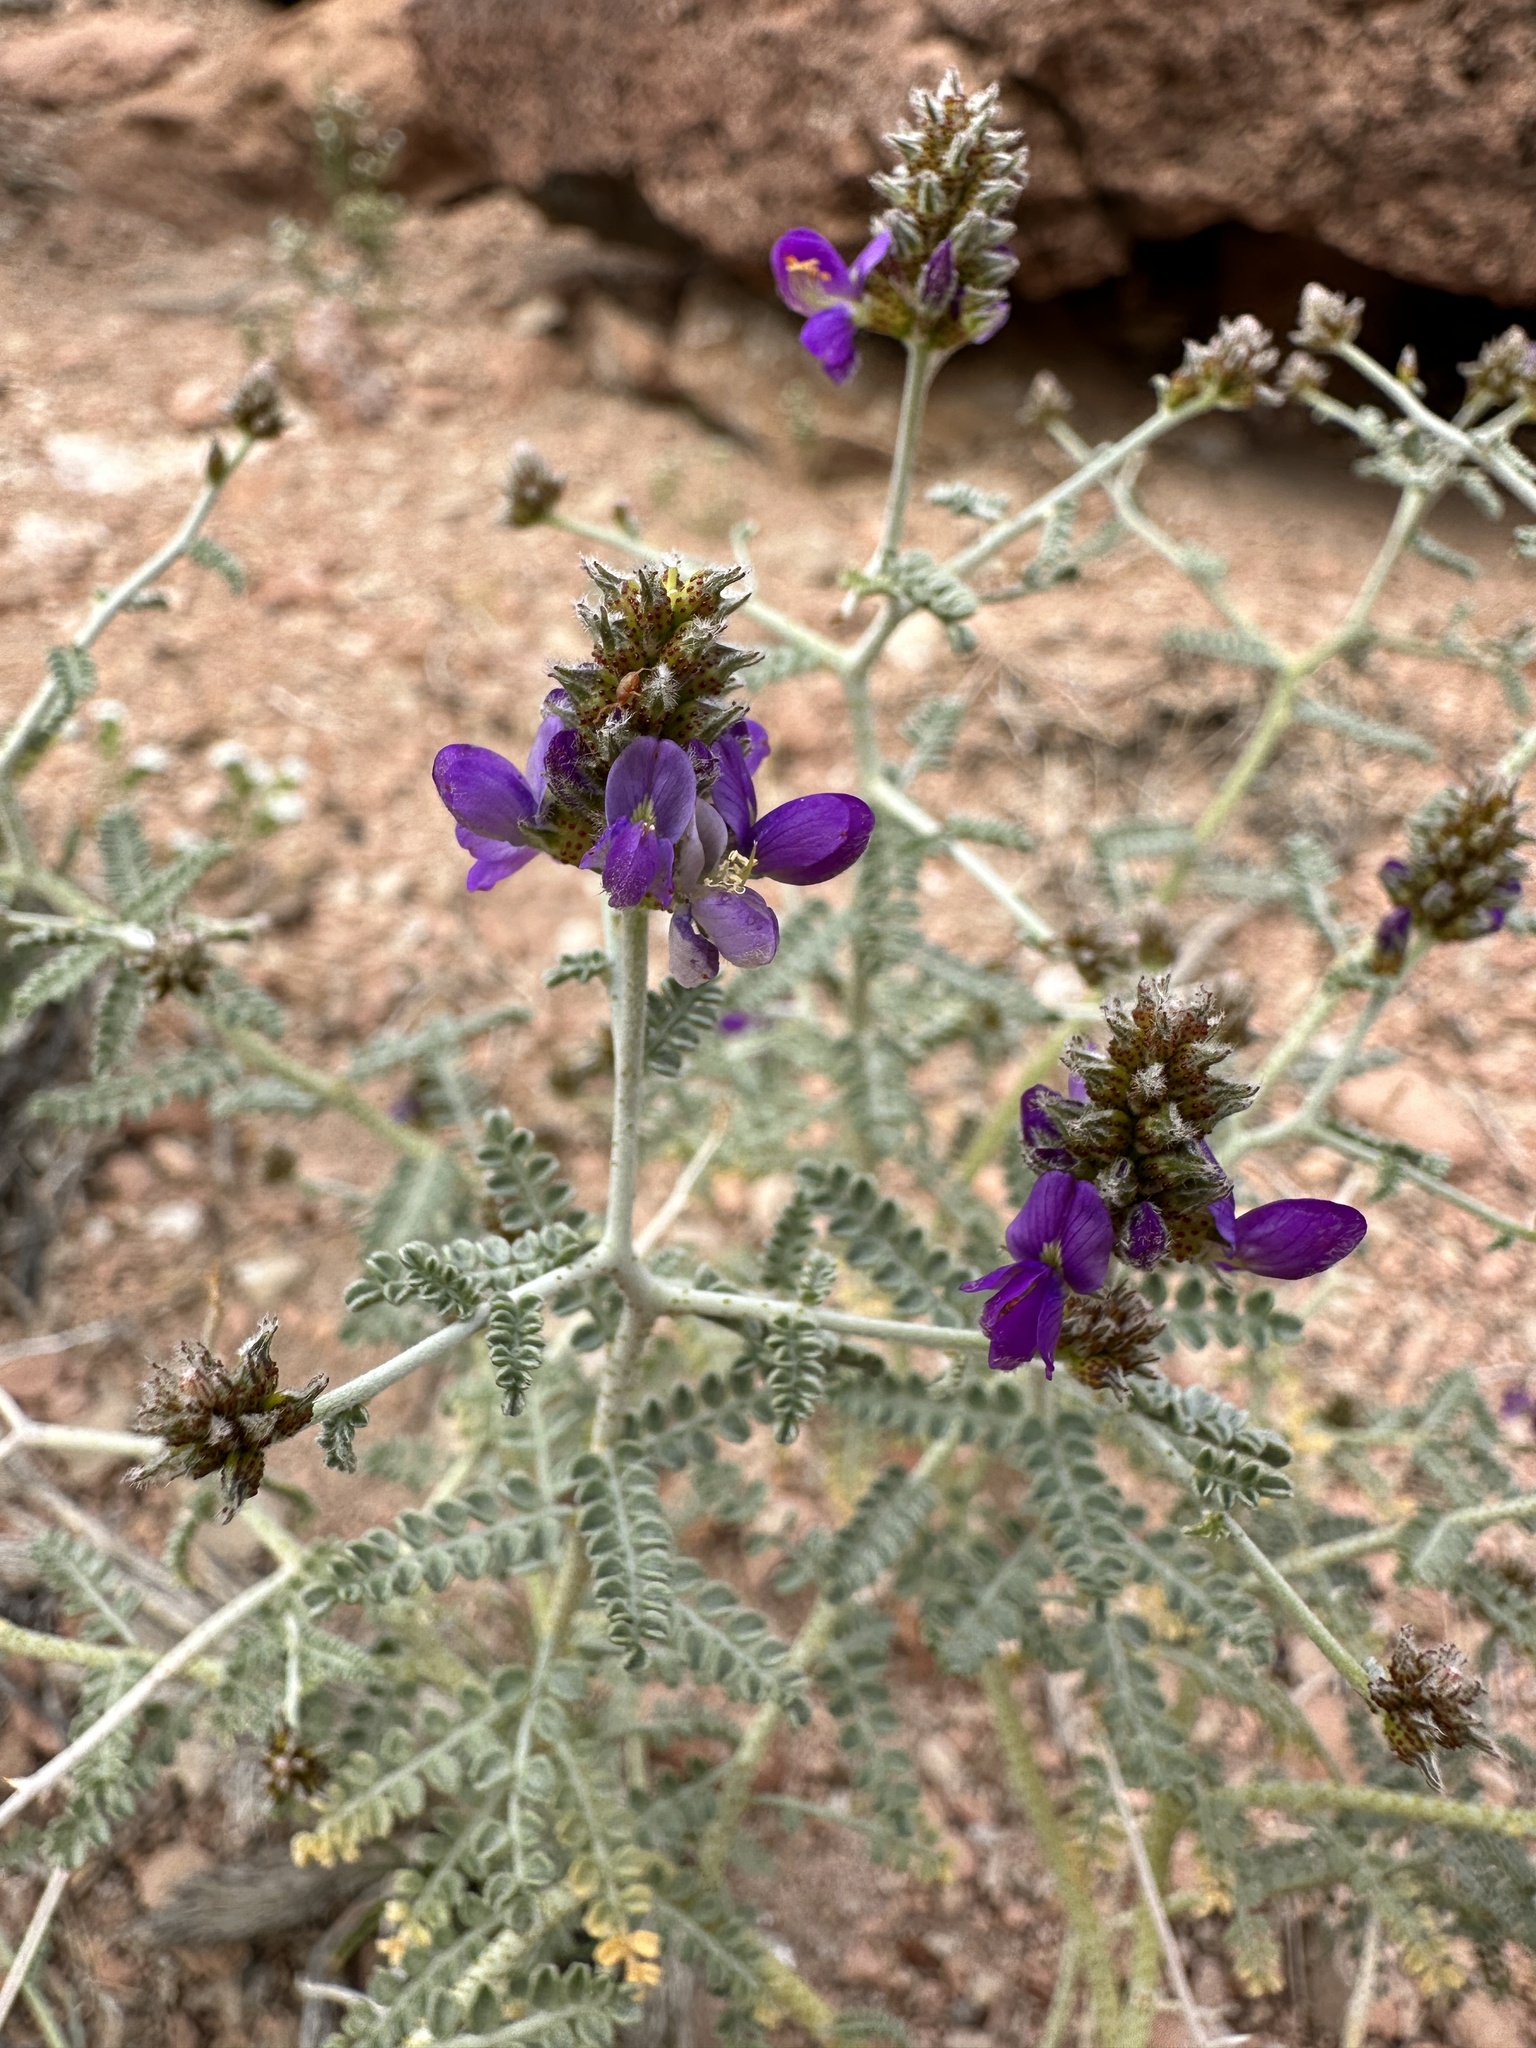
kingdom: Plantae
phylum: Tracheophyta
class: Magnoliopsida
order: Fabales
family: Fabaceae
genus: Psorothamnus
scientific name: Psorothamnus polydenius
